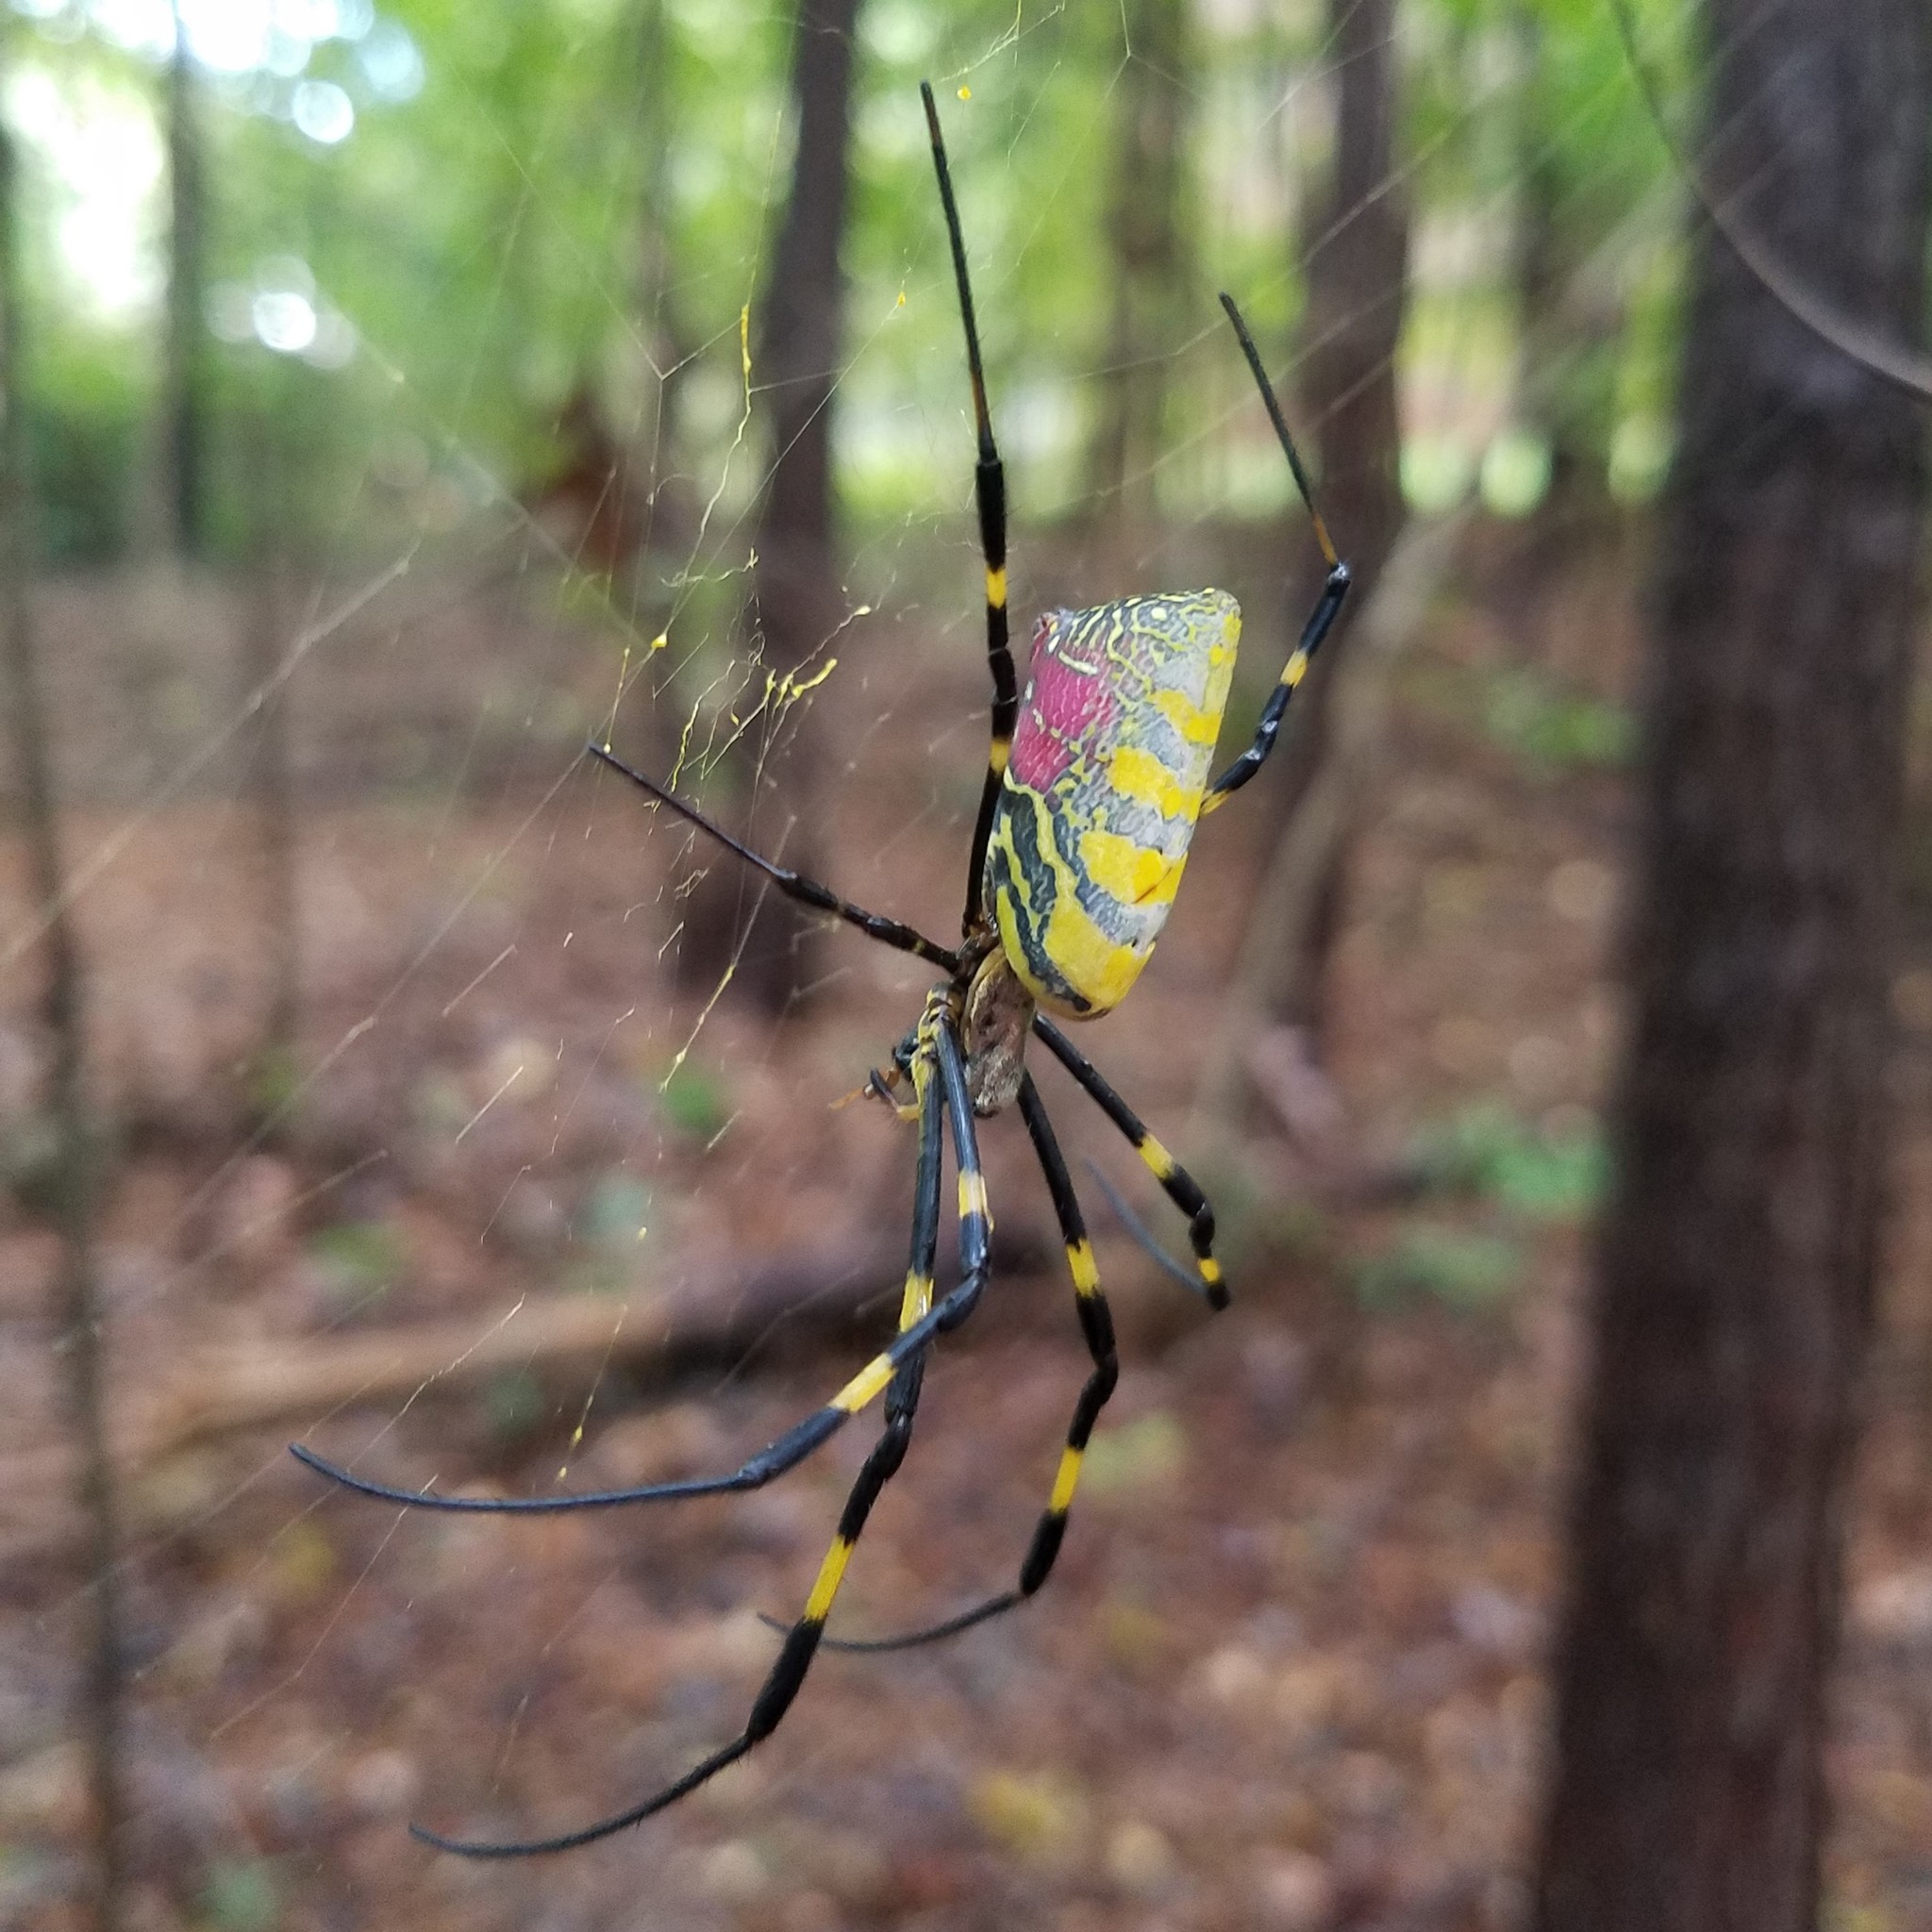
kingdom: Animalia
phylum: Arthropoda
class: Arachnida
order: Araneae
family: Araneidae
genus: Trichonephila
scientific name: Trichonephila clavata
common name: Jorō spider
